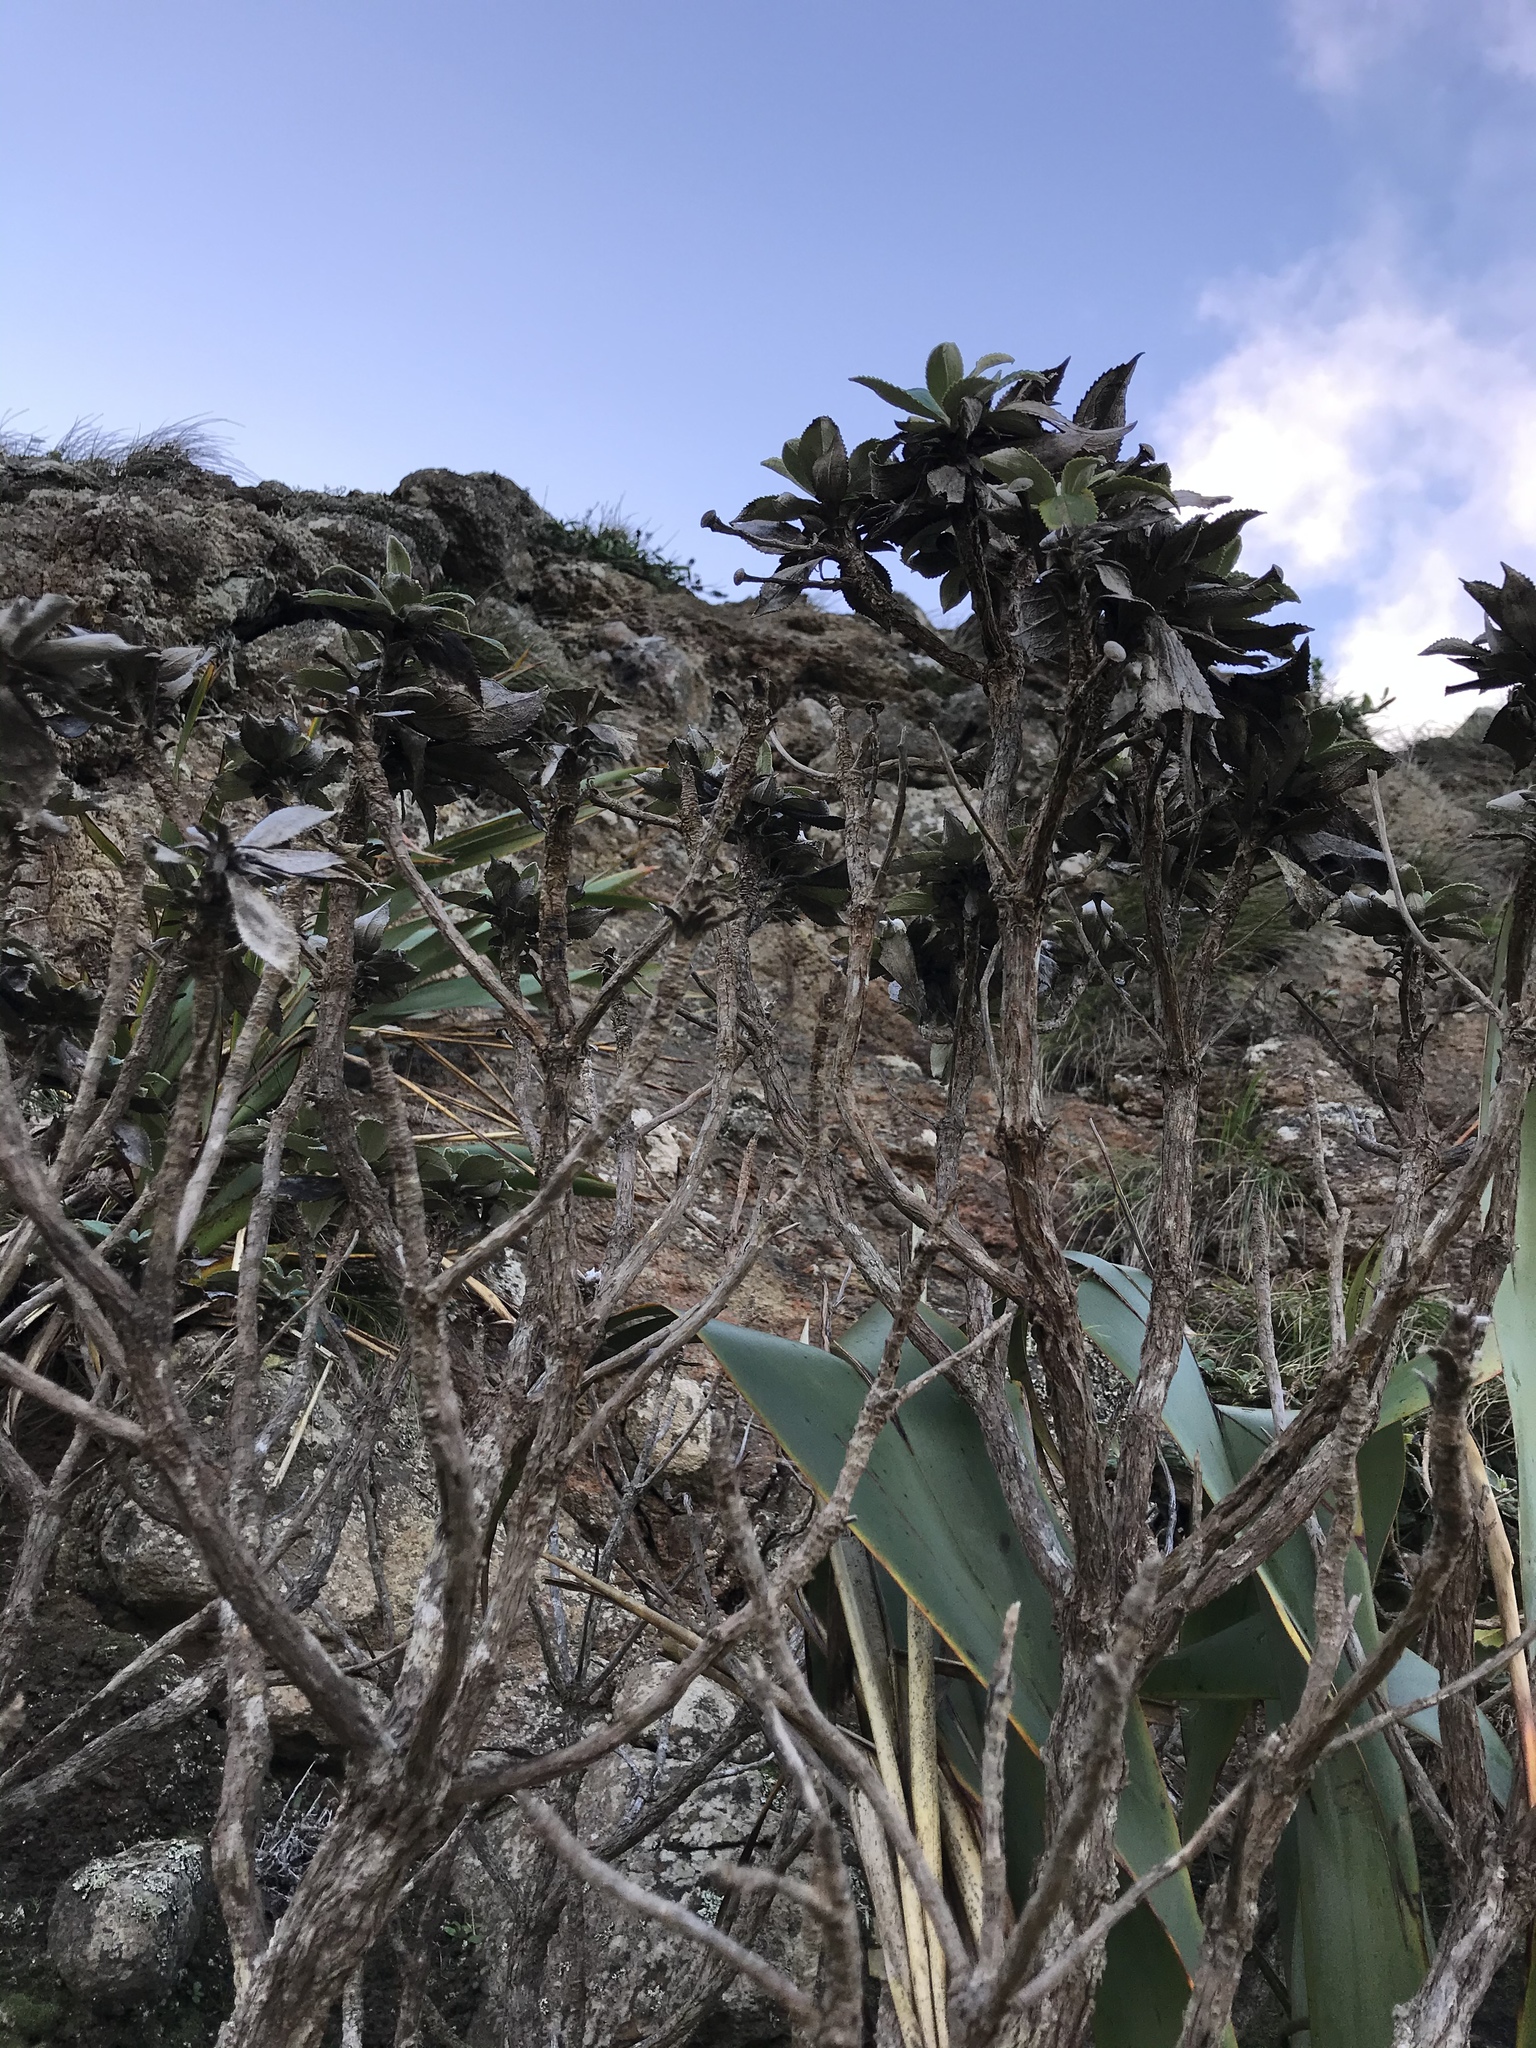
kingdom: Plantae
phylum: Tracheophyta
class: Magnoliopsida
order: Asterales
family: Asteraceae
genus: Macrolearia
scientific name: Macrolearia chathamica
